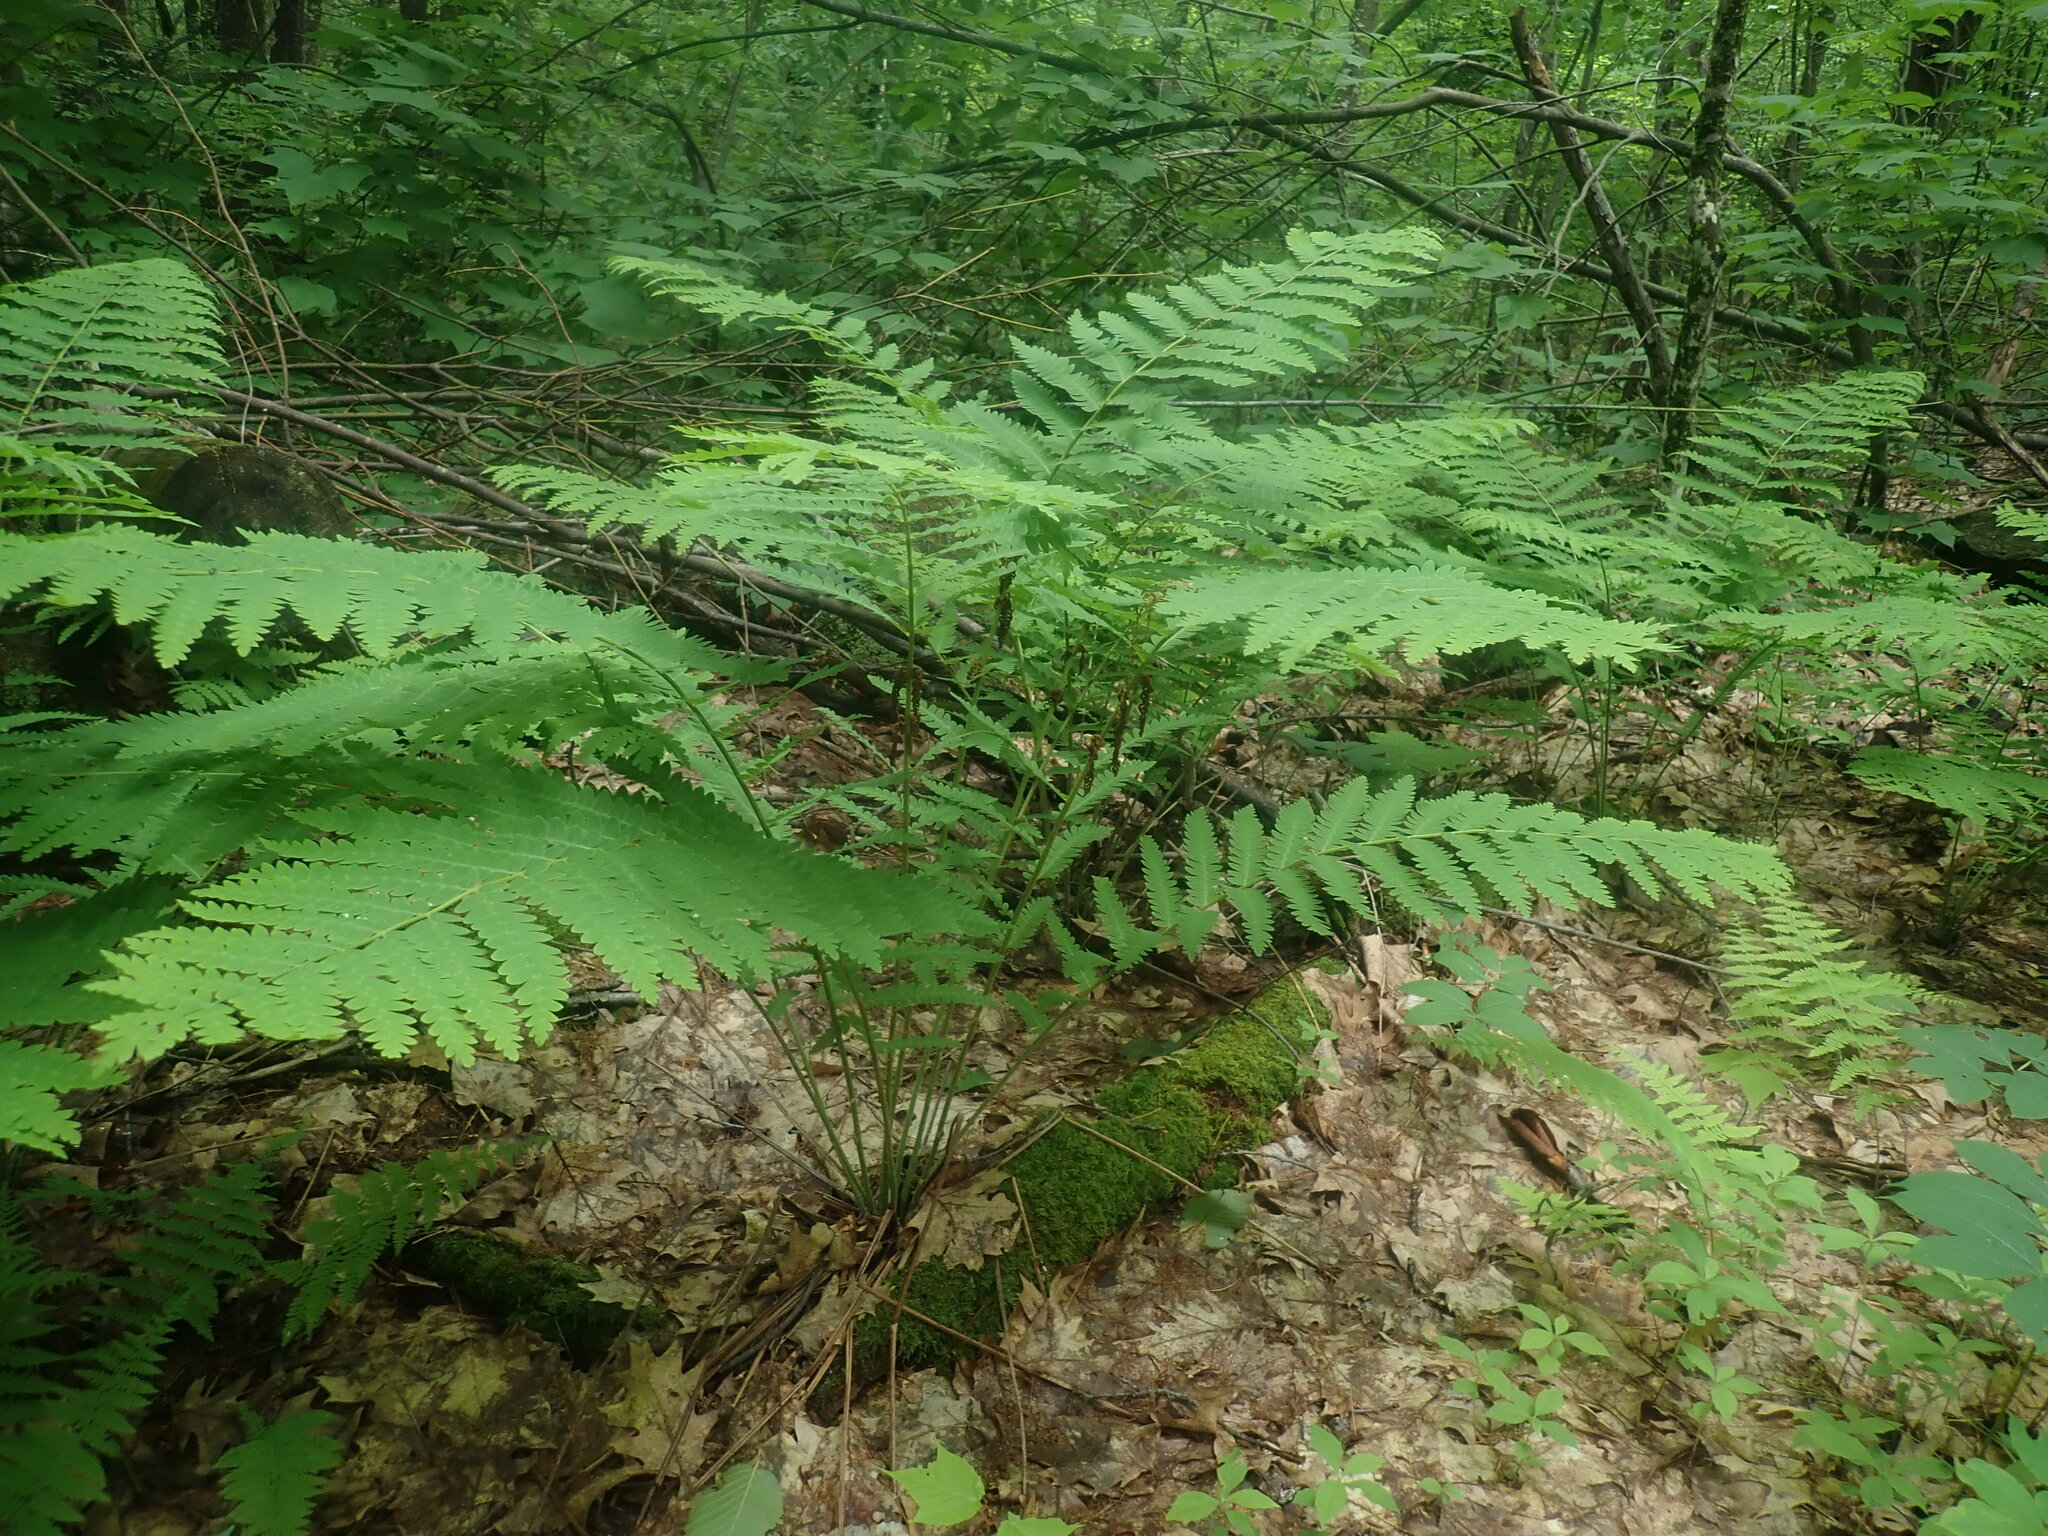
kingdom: Plantae
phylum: Tracheophyta
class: Polypodiopsida
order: Osmundales
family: Osmundaceae
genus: Claytosmunda
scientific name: Claytosmunda claytoniana
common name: Clayton's fern
